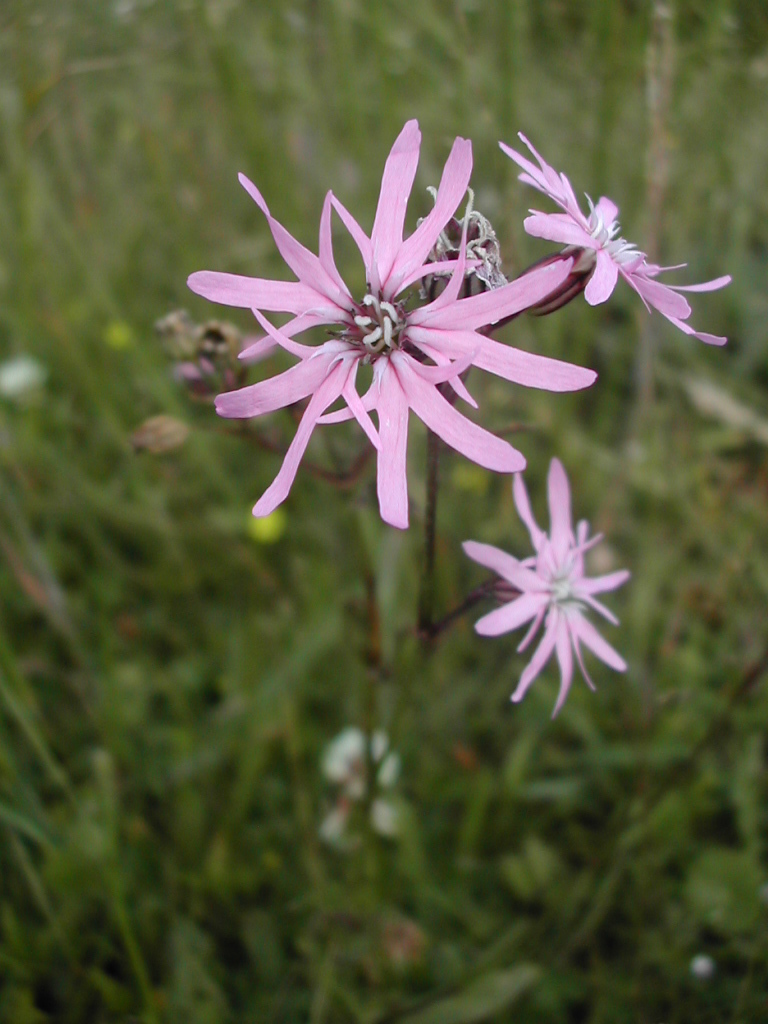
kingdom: Plantae
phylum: Tracheophyta
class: Magnoliopsida
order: Caryophyllales
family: Caryophyllaceae
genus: Silene
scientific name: Silene flos-cuculi
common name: Ragged-robin
